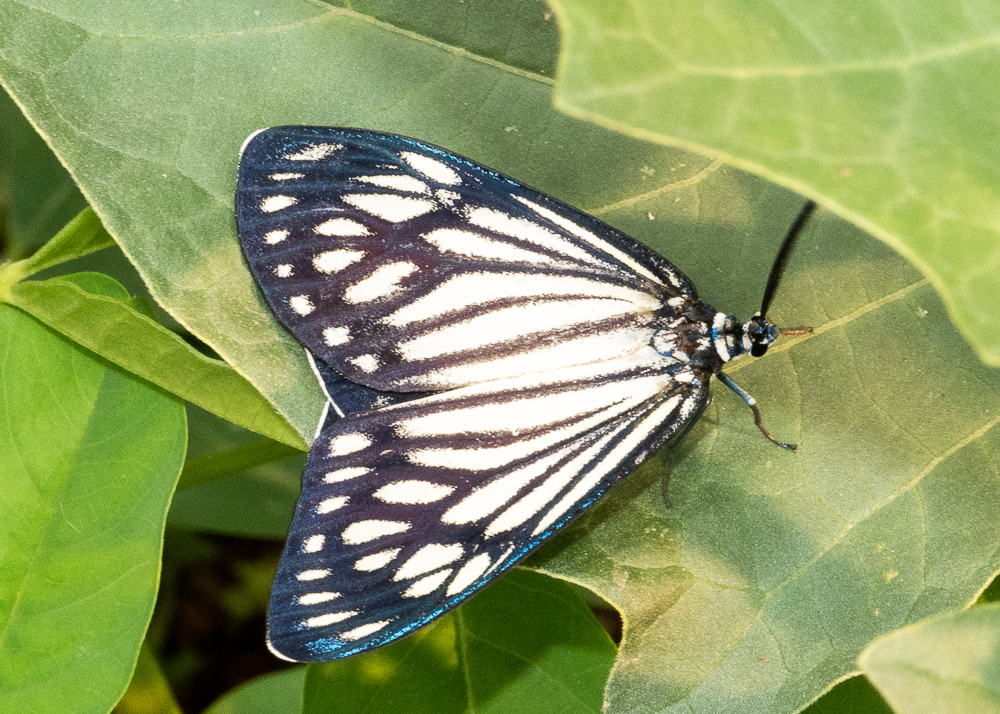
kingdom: Animalia
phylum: Arthropoda
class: Insecta
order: Lepidoptera
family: Zygaenidae
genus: Cyclosia
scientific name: Cyclosia papilionaris
